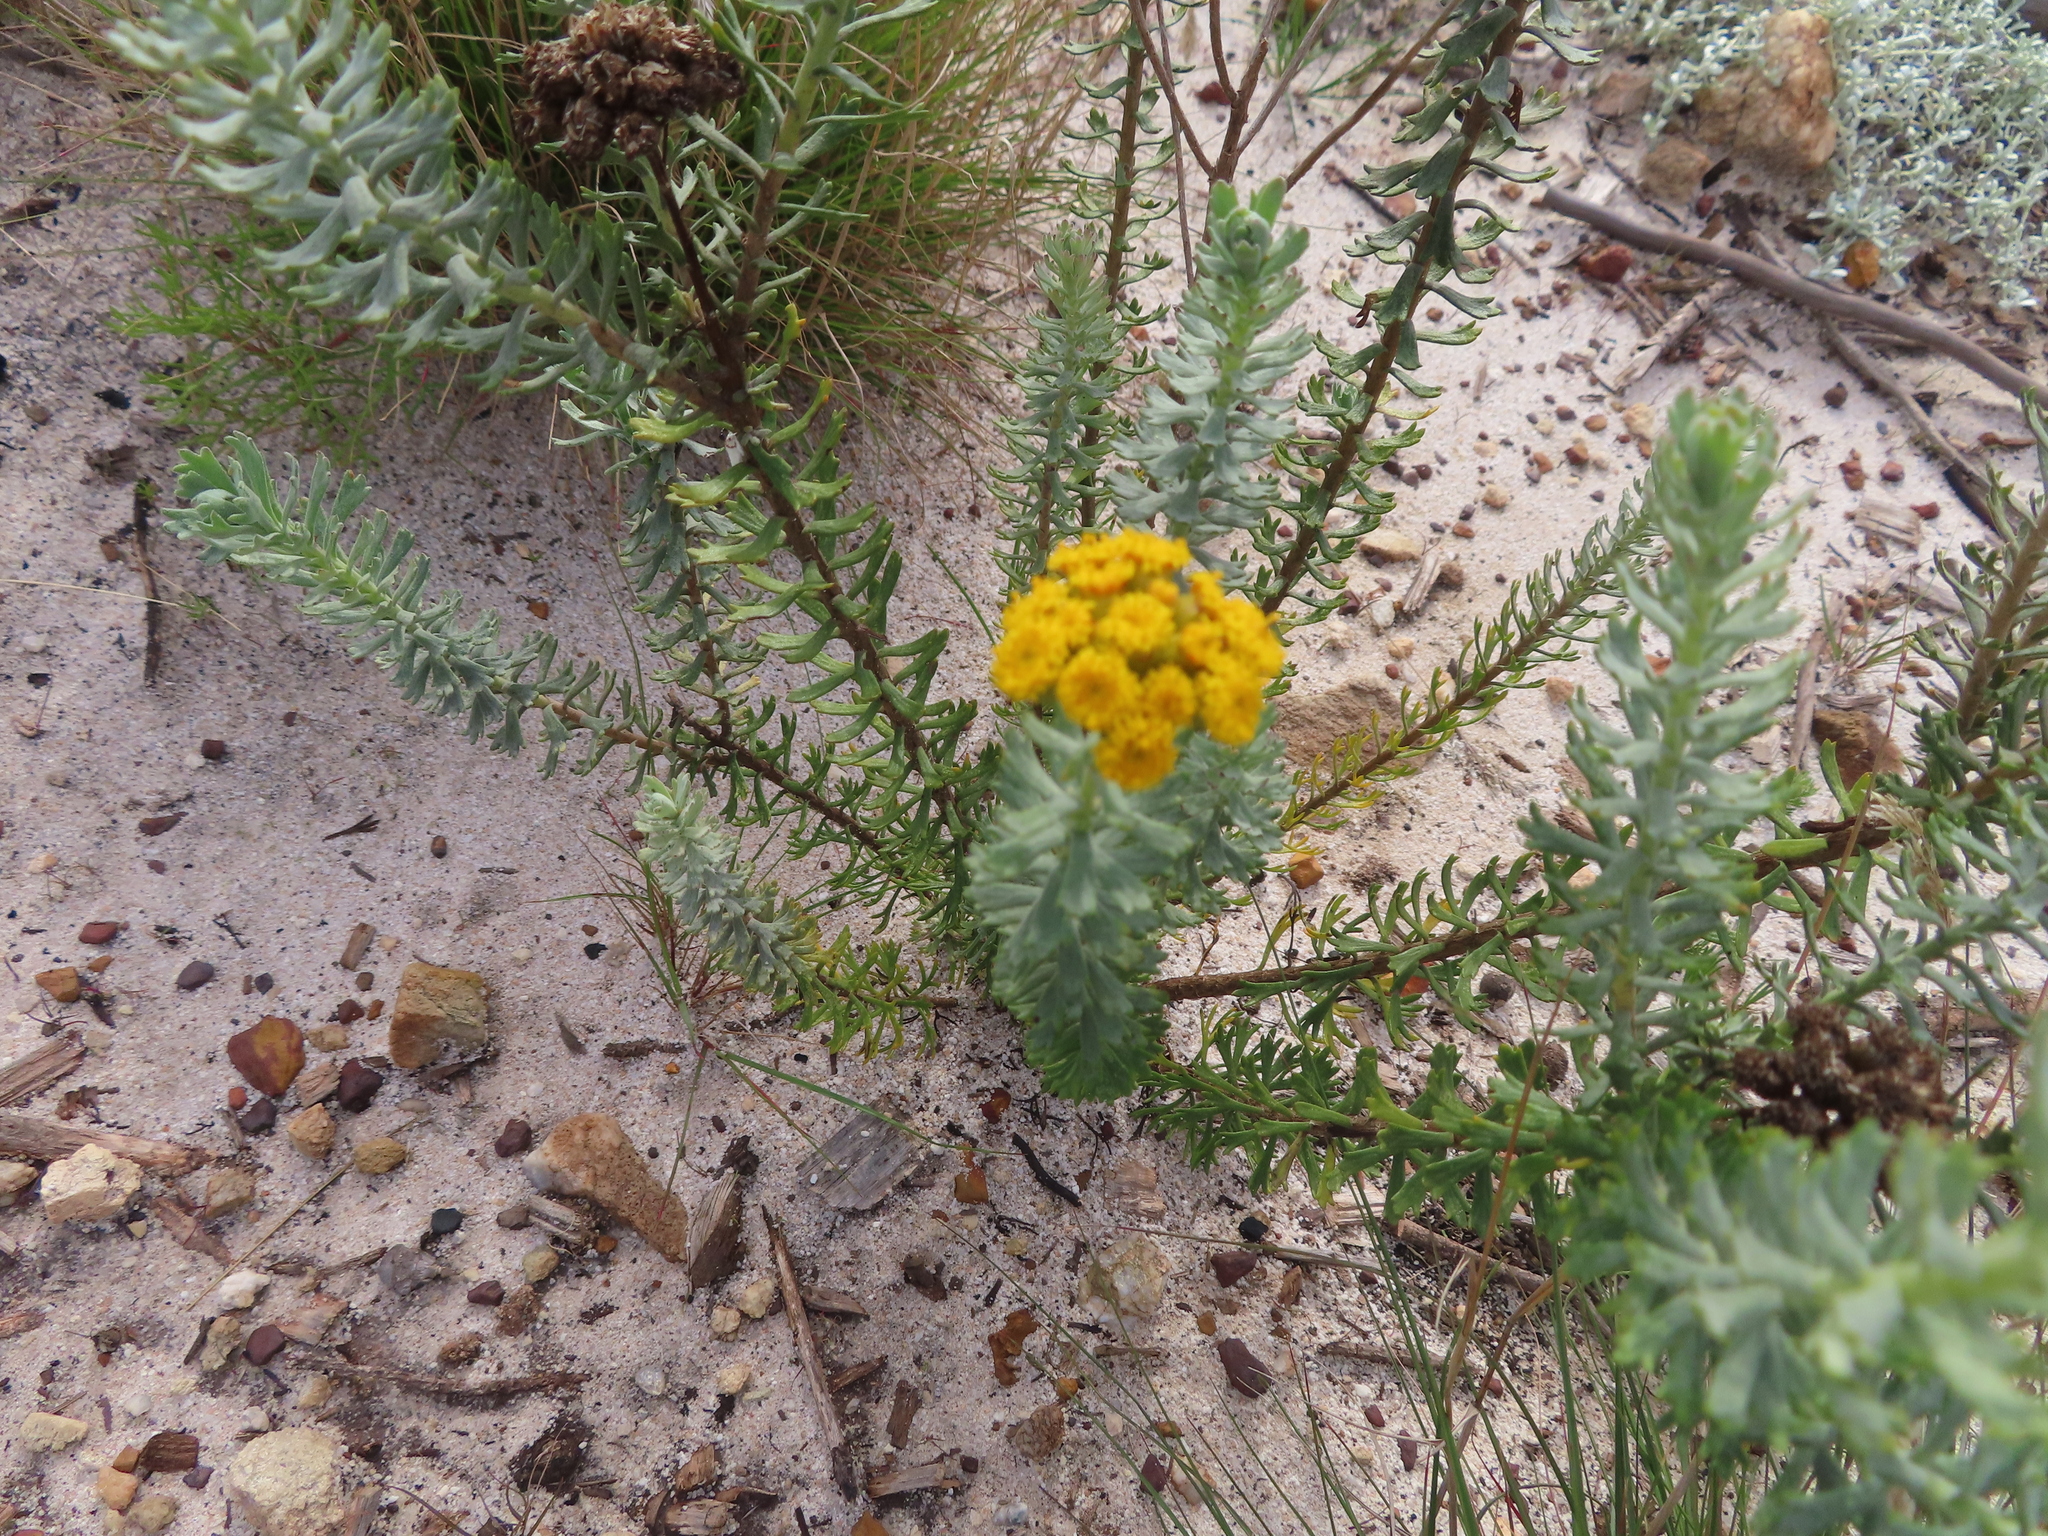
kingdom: Plantae
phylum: Tracheophyta
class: Magnoliopsida
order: Asterales
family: Asteraceae
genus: Athanasia
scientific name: Athanasia trifurcata
